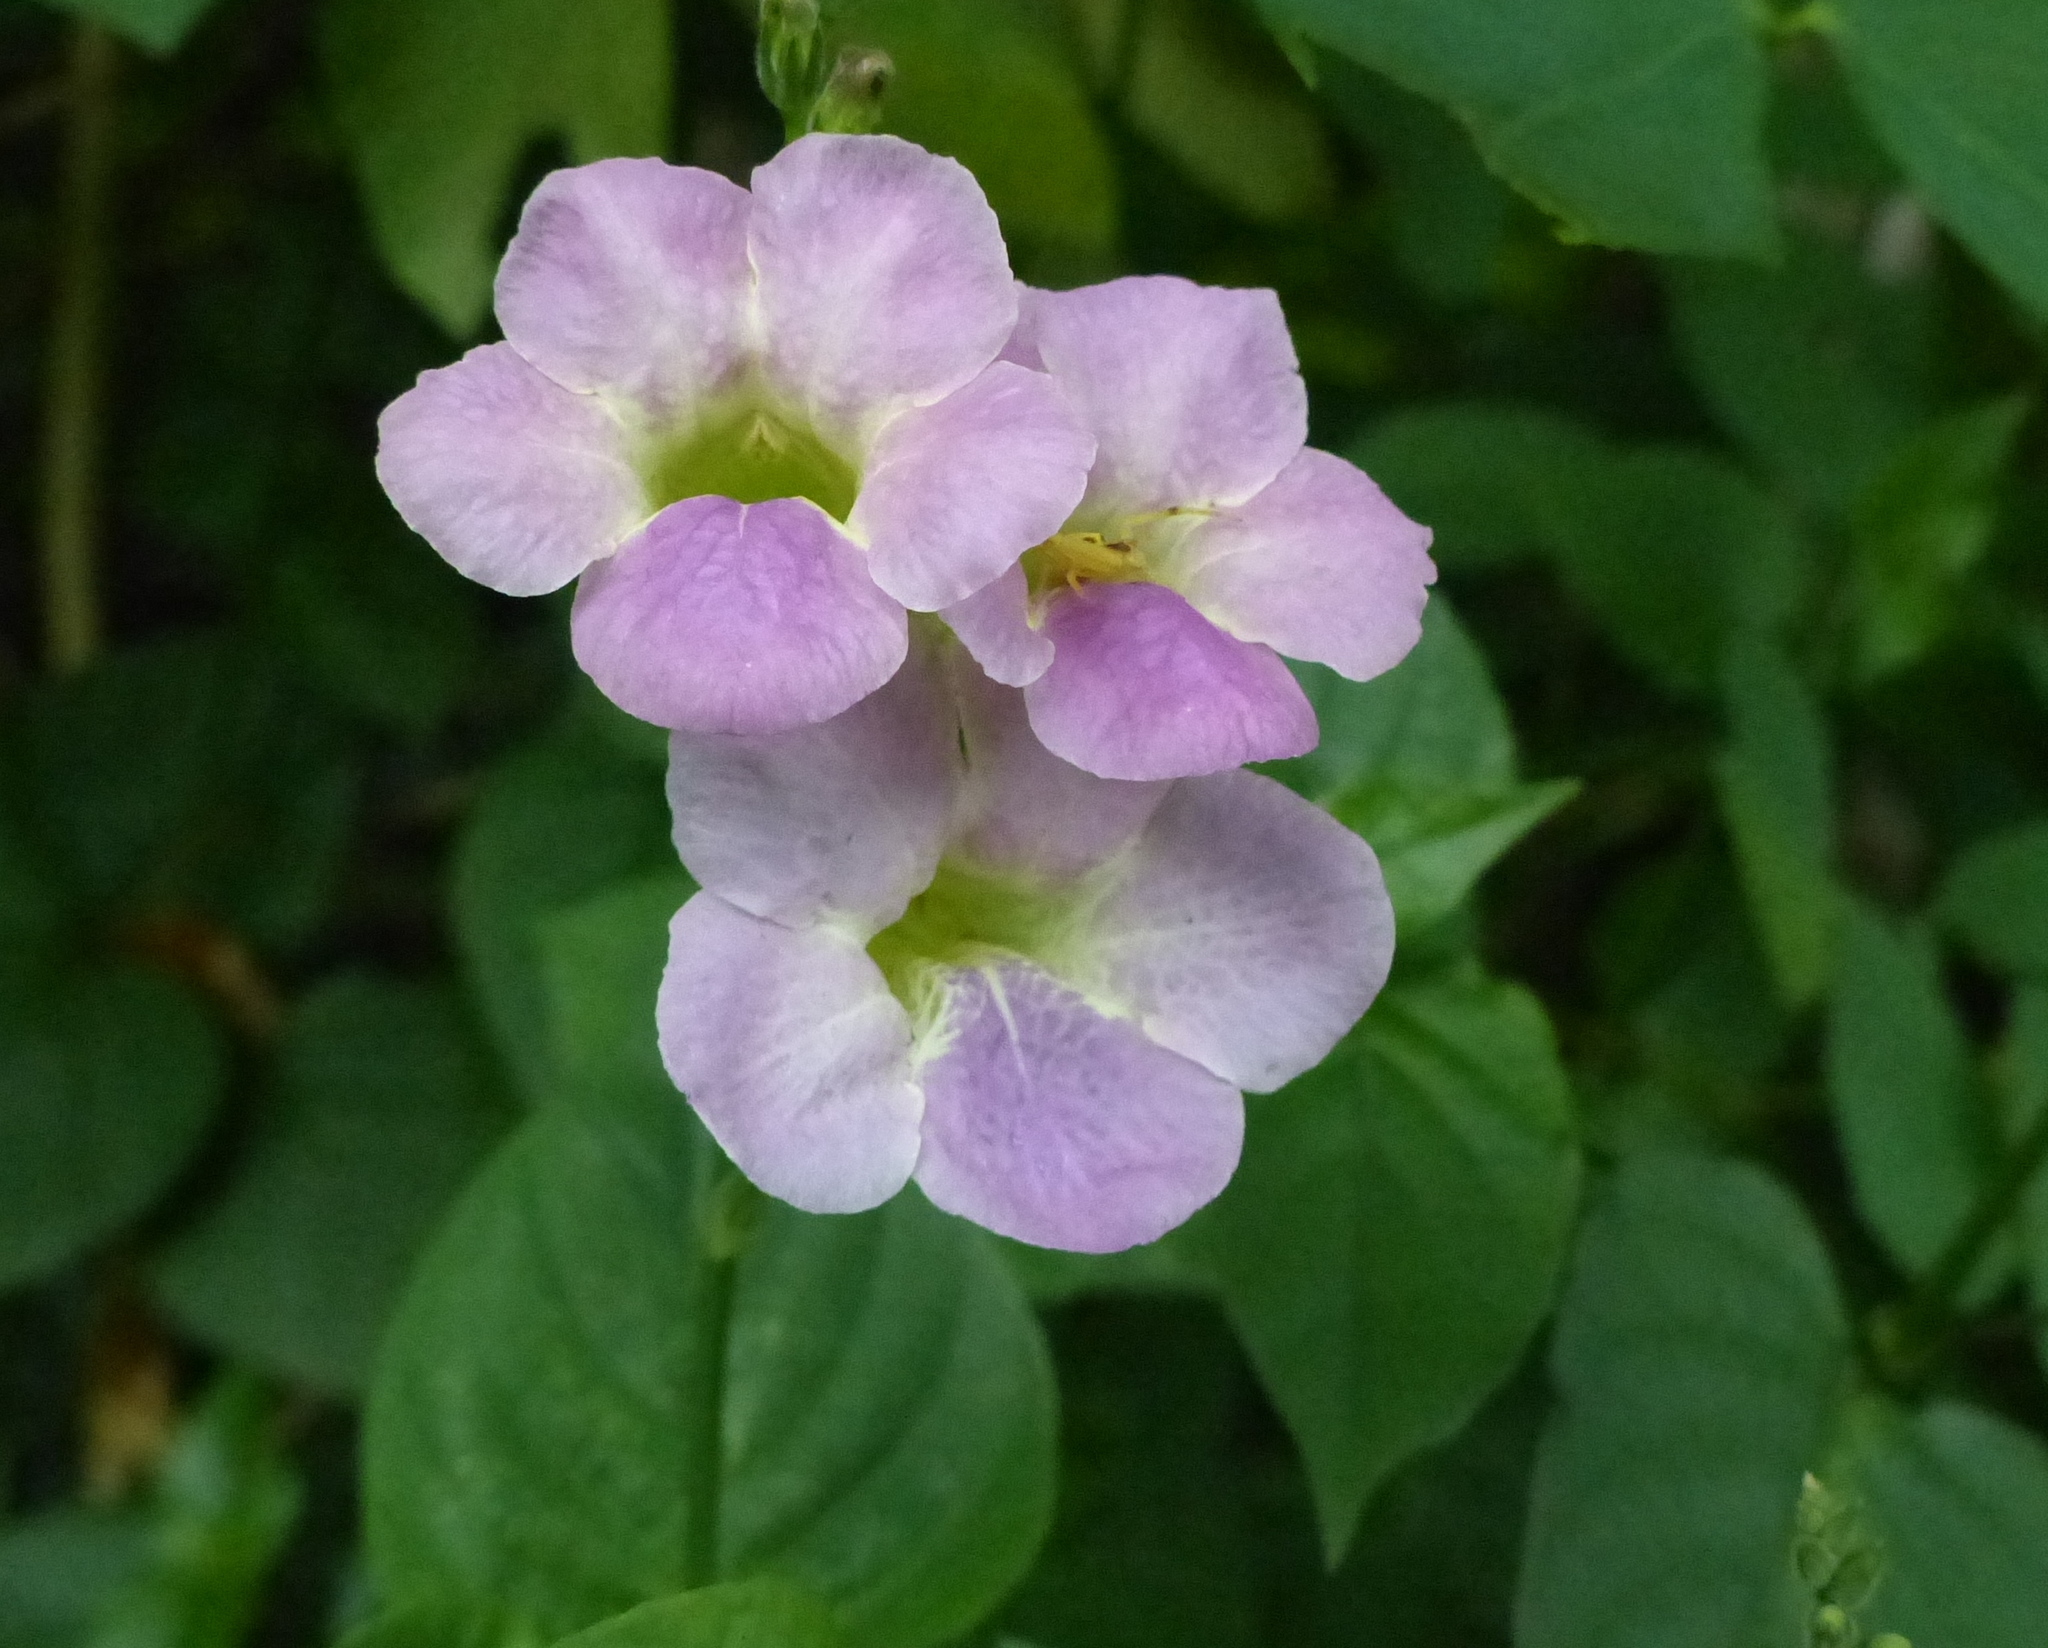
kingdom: Plantae
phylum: Tracheophyta
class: Magnoliopsida
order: Lamiales
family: Acanthaceae
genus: Asystasia
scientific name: Asystasia gangetica
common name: Chinese violet
